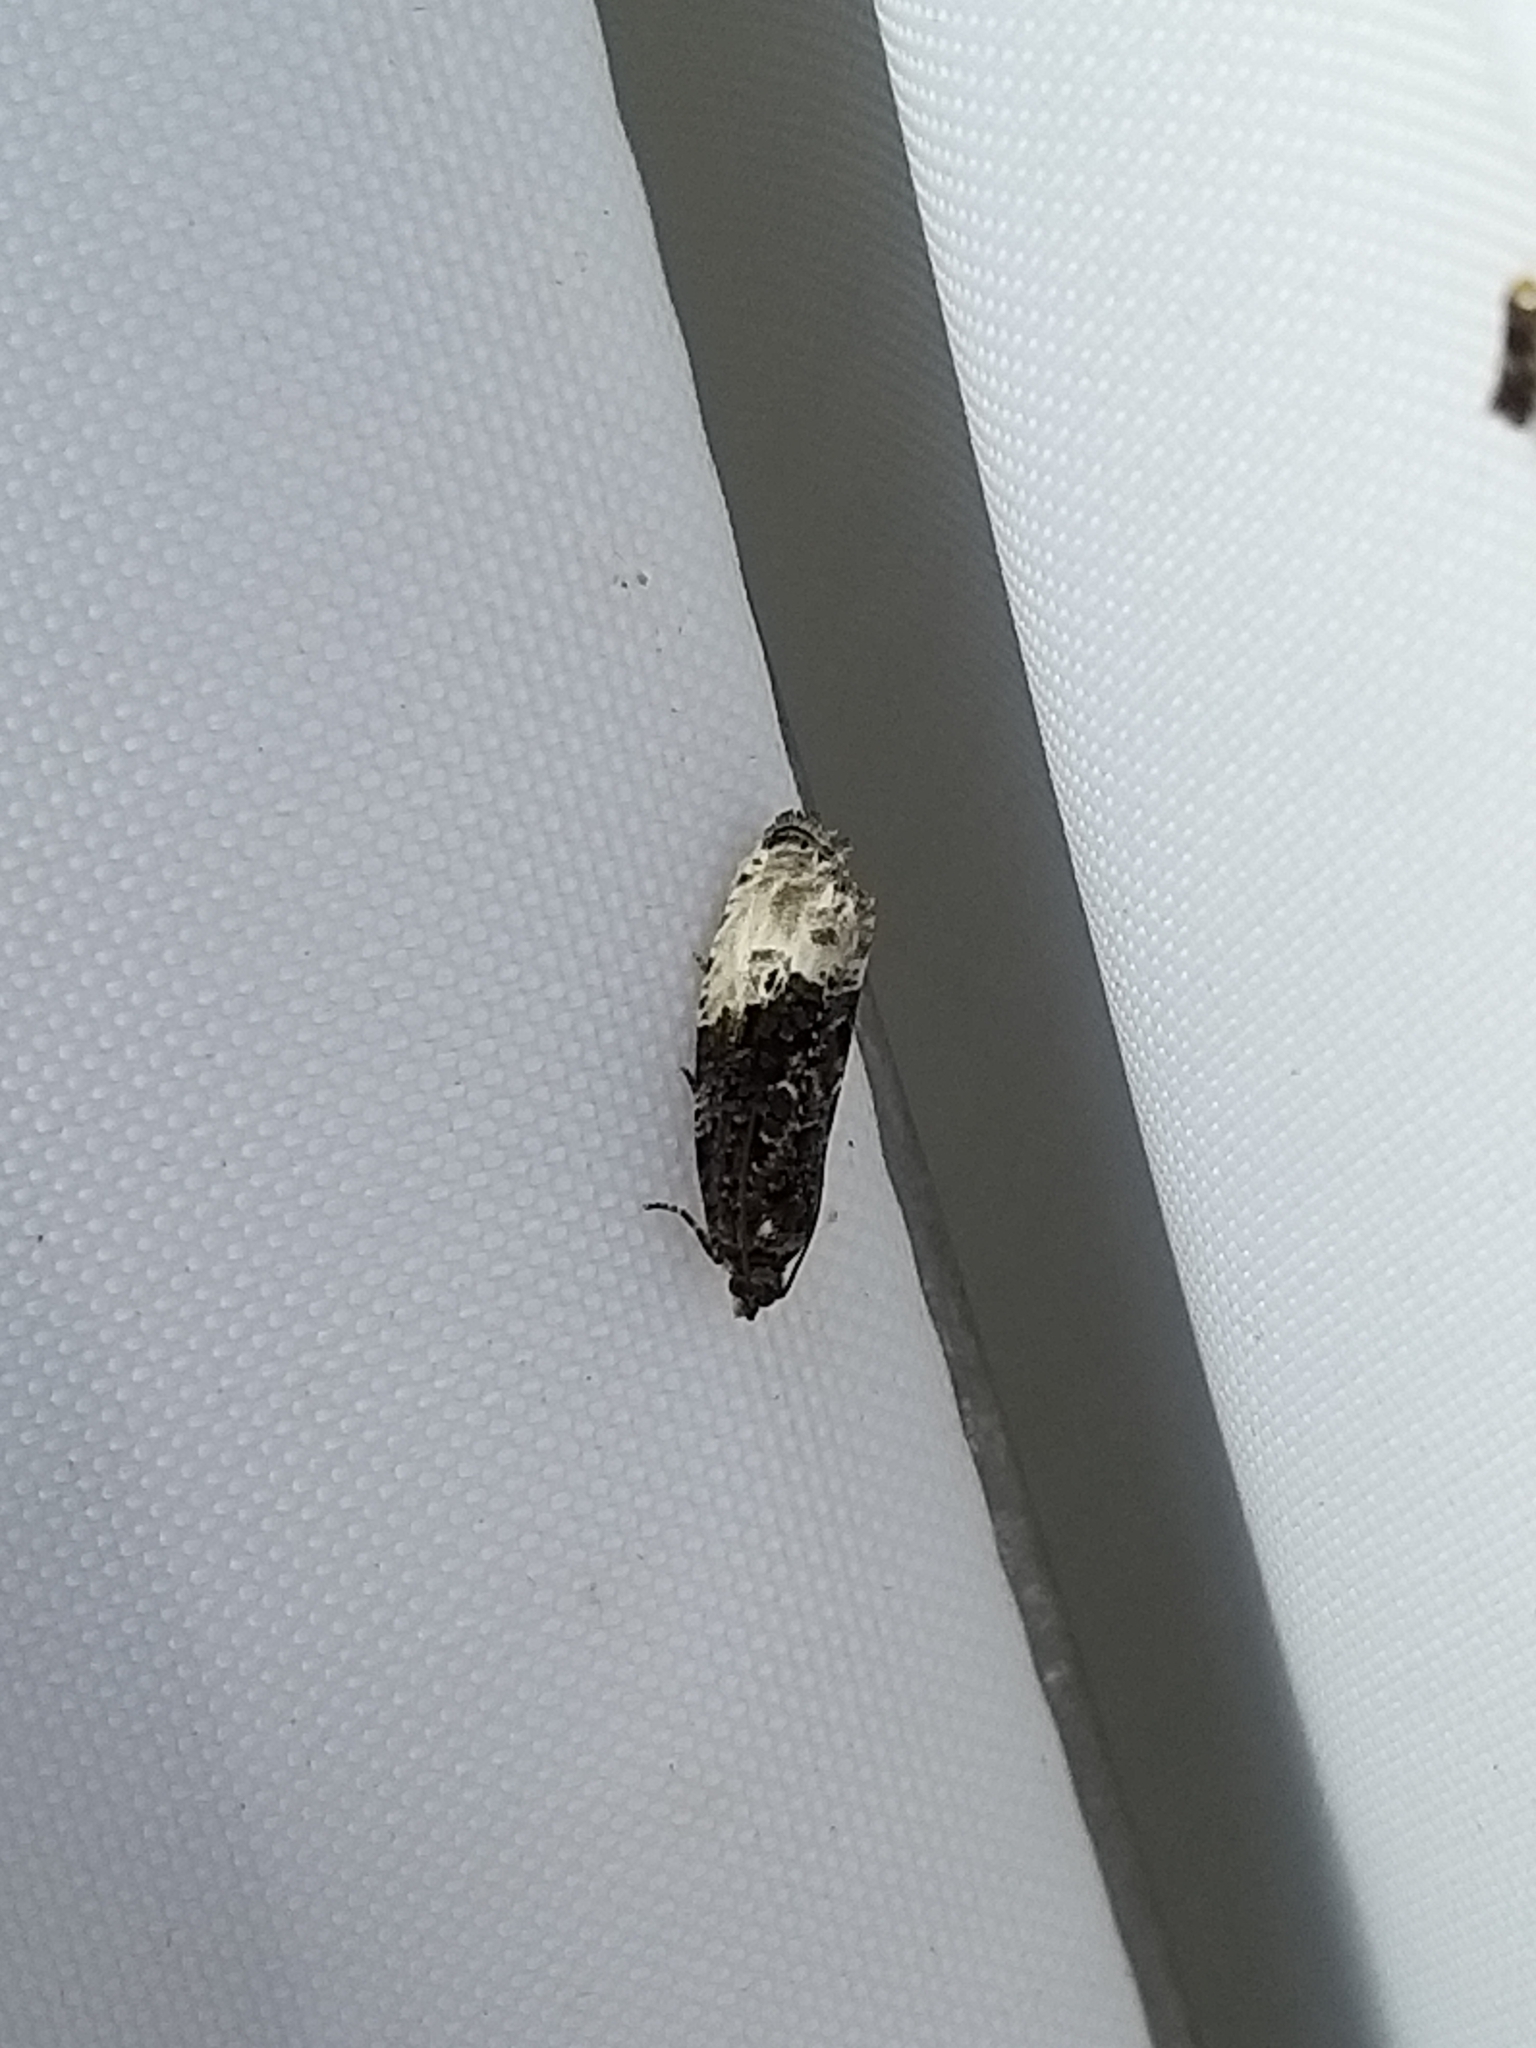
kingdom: Animalia
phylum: Arthropoda
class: Insecta
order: Lepidoptera
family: Tortricidae
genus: Hedya
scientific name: Hedya nubiferana
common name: Marbled orchard tortrix
